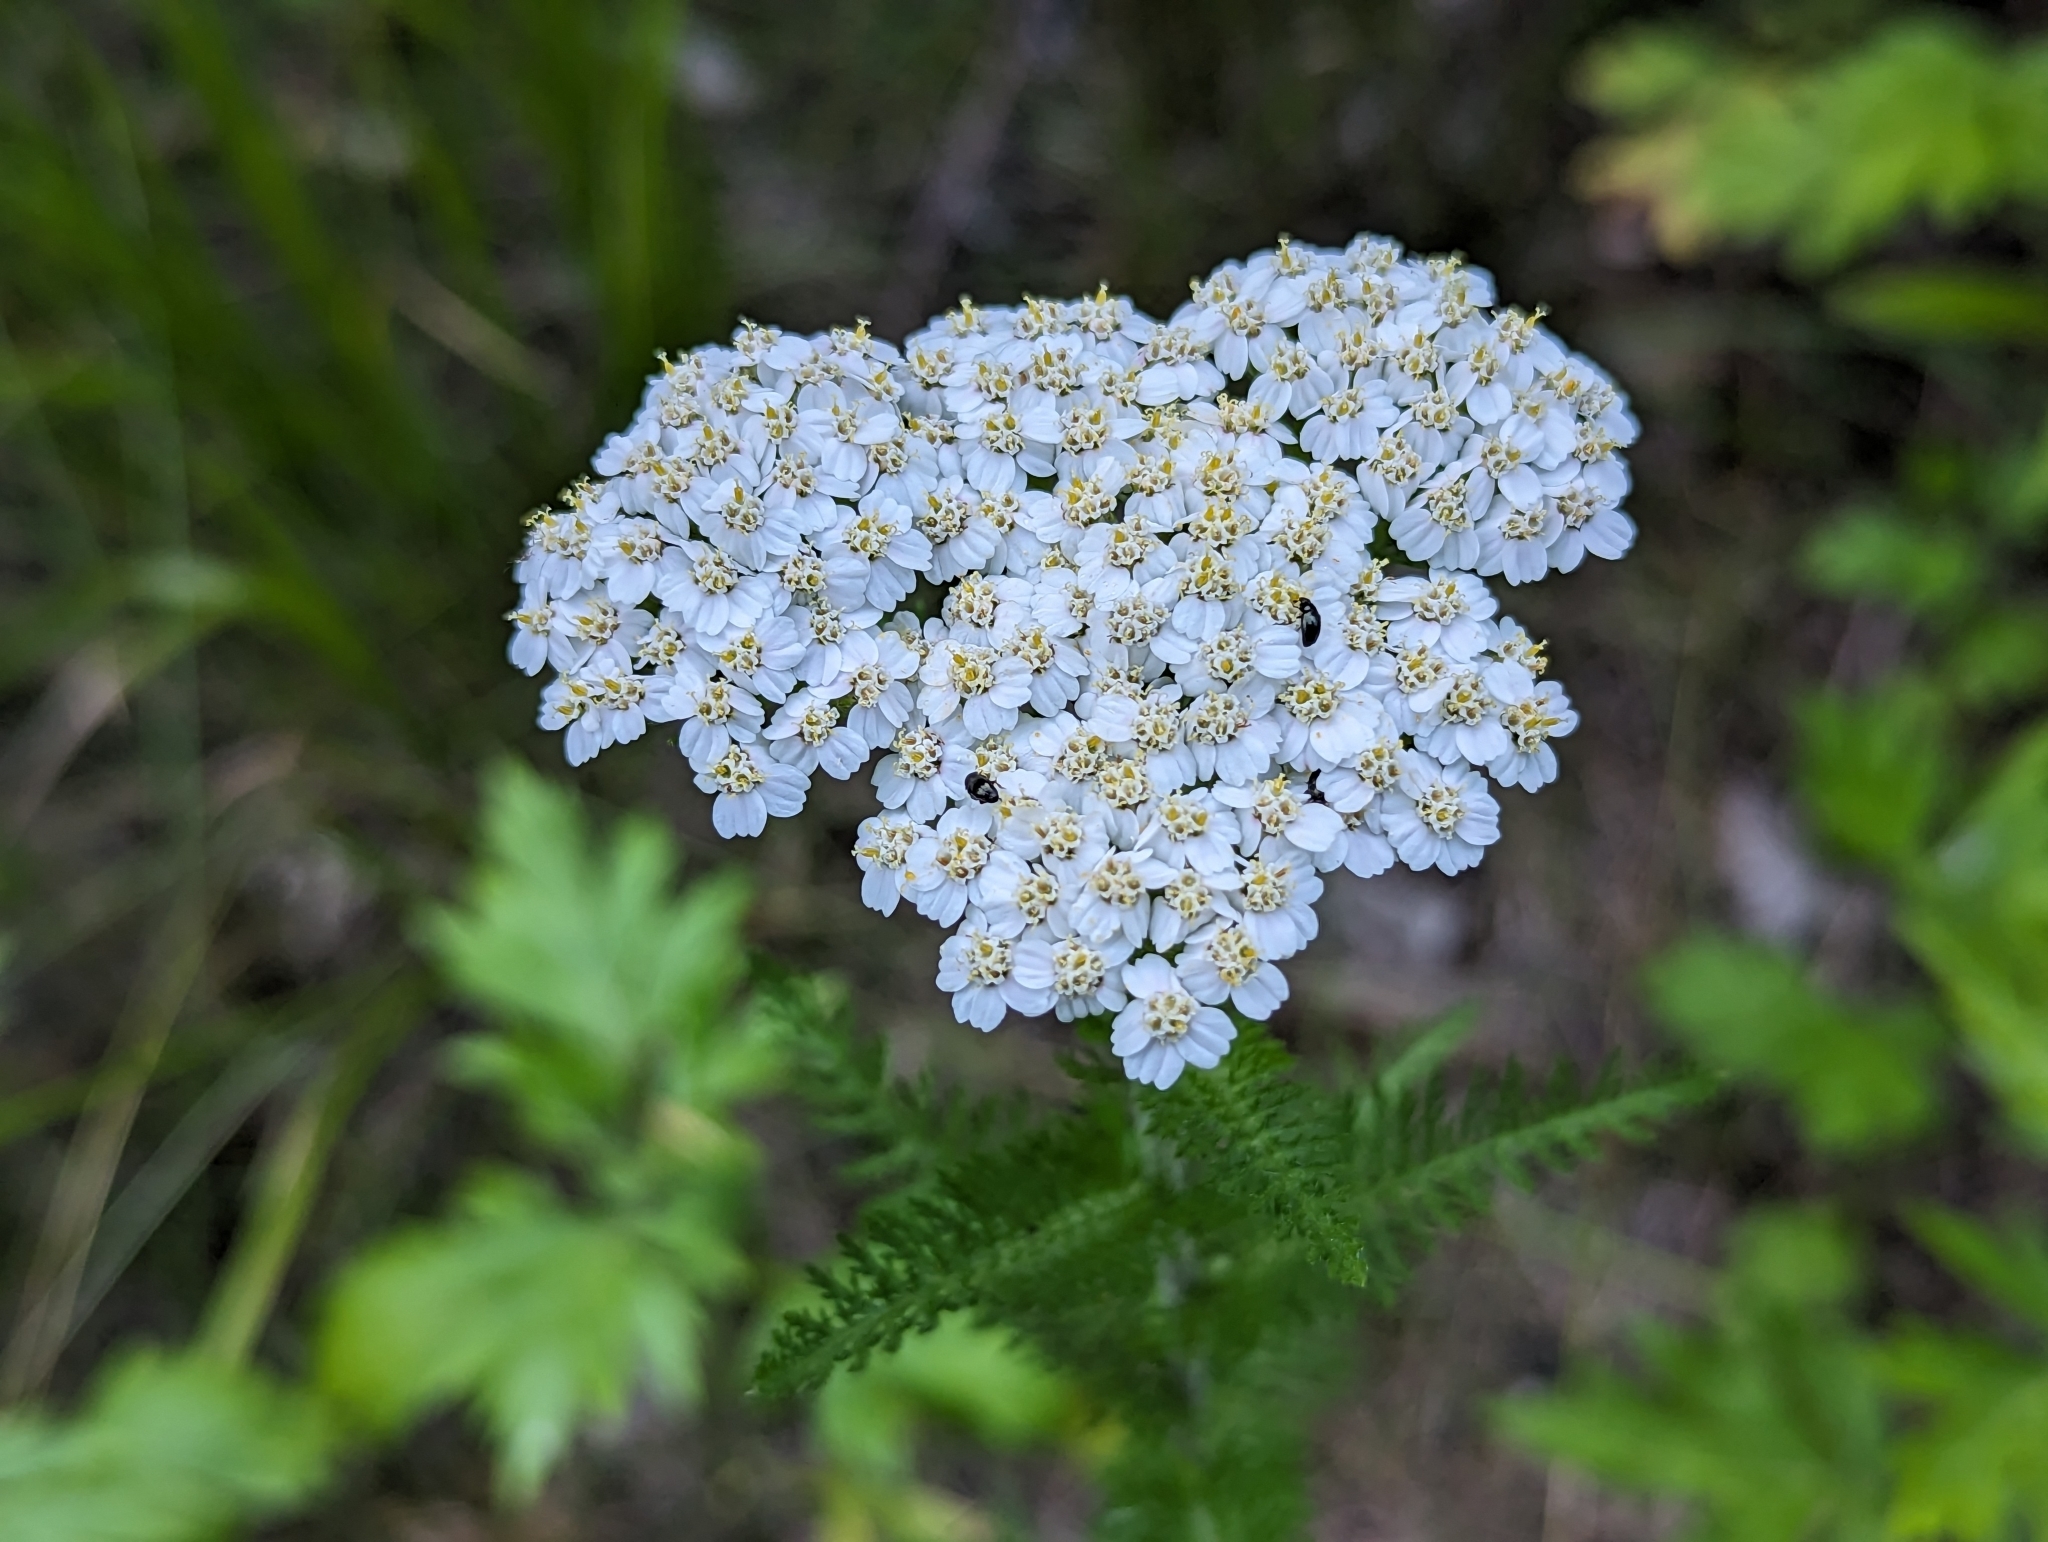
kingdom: Plantae
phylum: Tracheophyta
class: Magnoliopsida
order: Asterales
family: Asteraceae
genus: Achillea
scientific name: Achillea millefolium
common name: Yarrow
